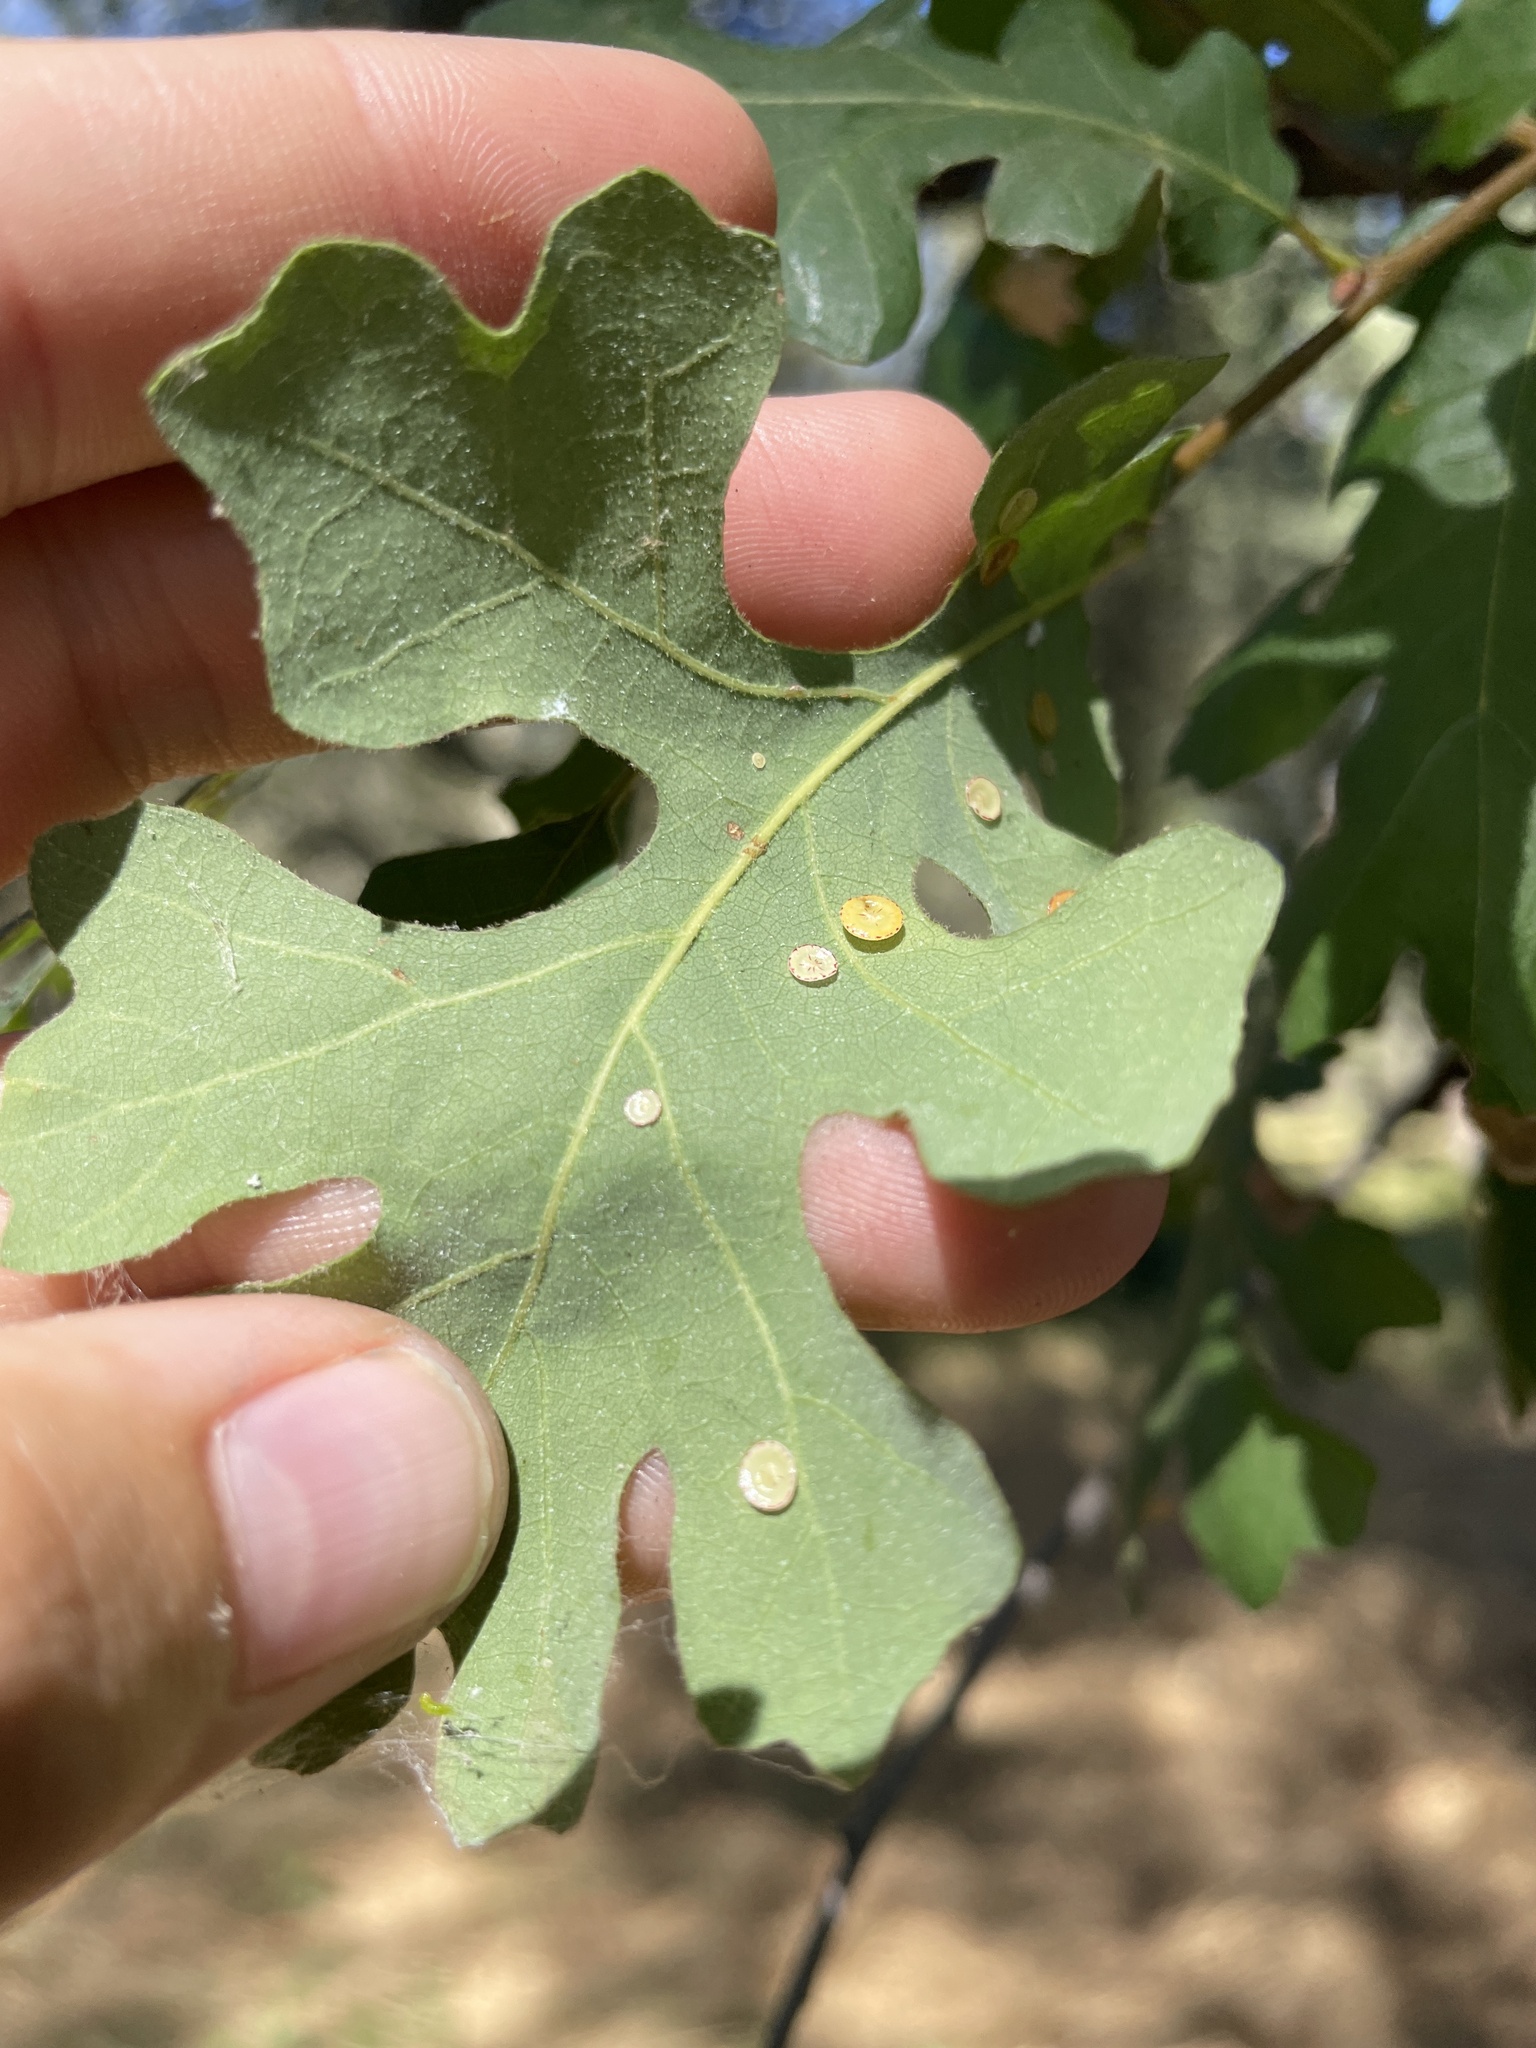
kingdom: Animalia
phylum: Arthropoda
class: Insecta
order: Hymenoptera
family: Cynipidae
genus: Andricus
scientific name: Andricus
